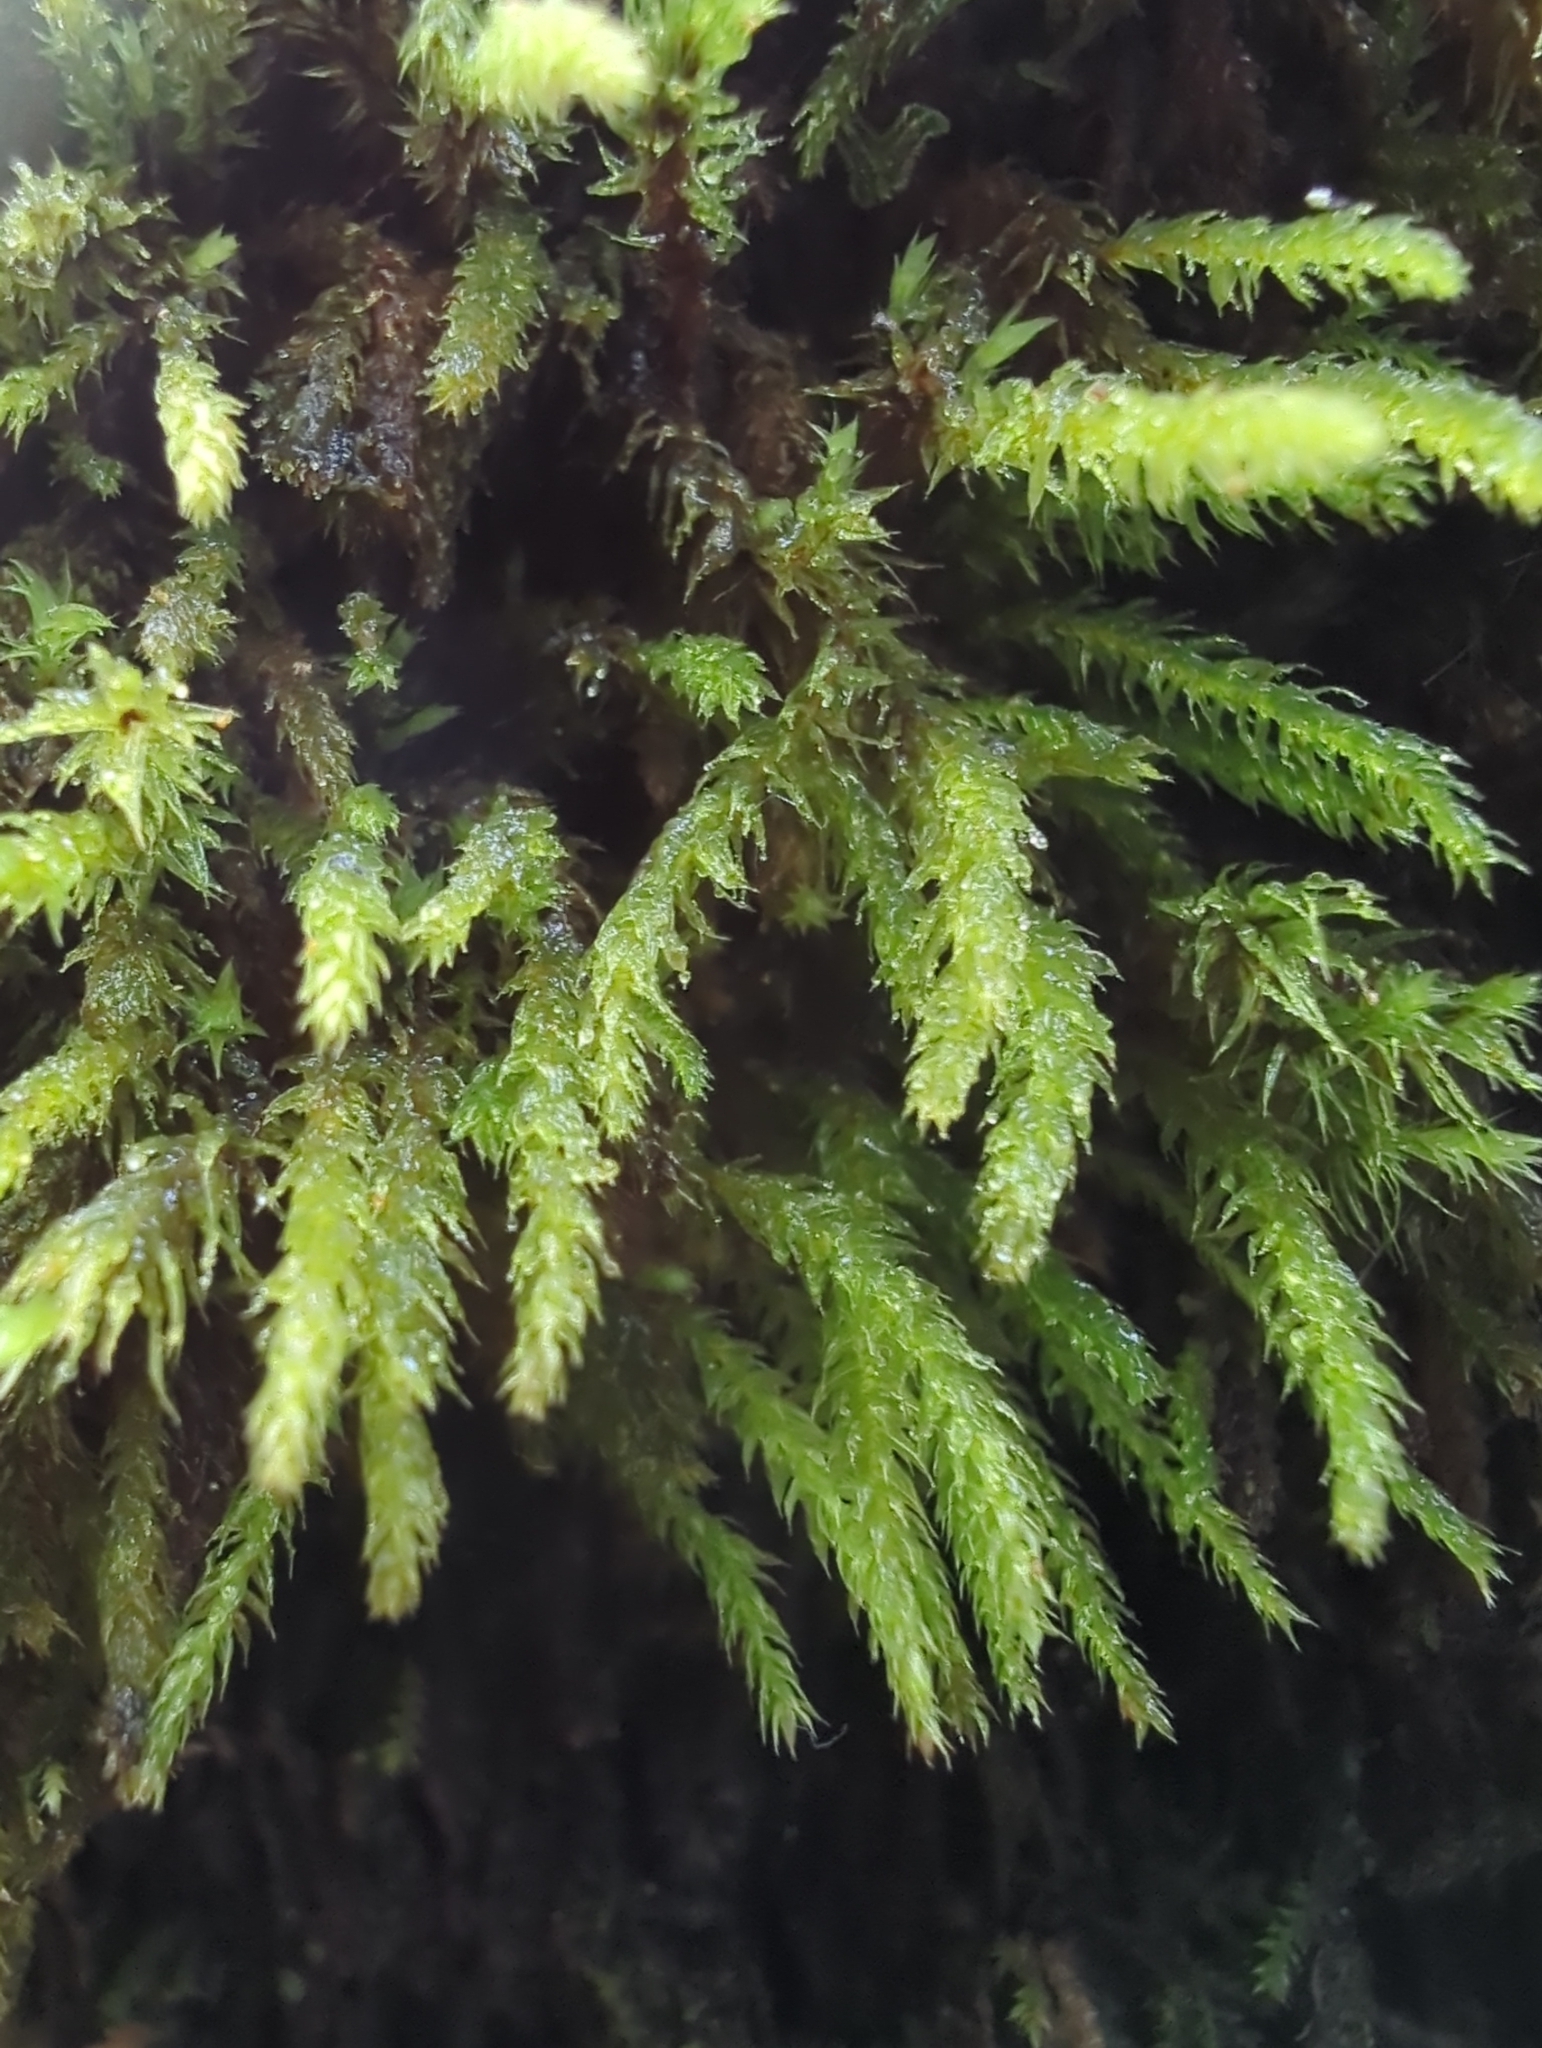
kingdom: Plantae
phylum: Bryophyta
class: Bryopsida
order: Orthodontiales
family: Orthodontiaceae
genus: Leptotheca
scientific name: Leptotheca gaudichaudii
